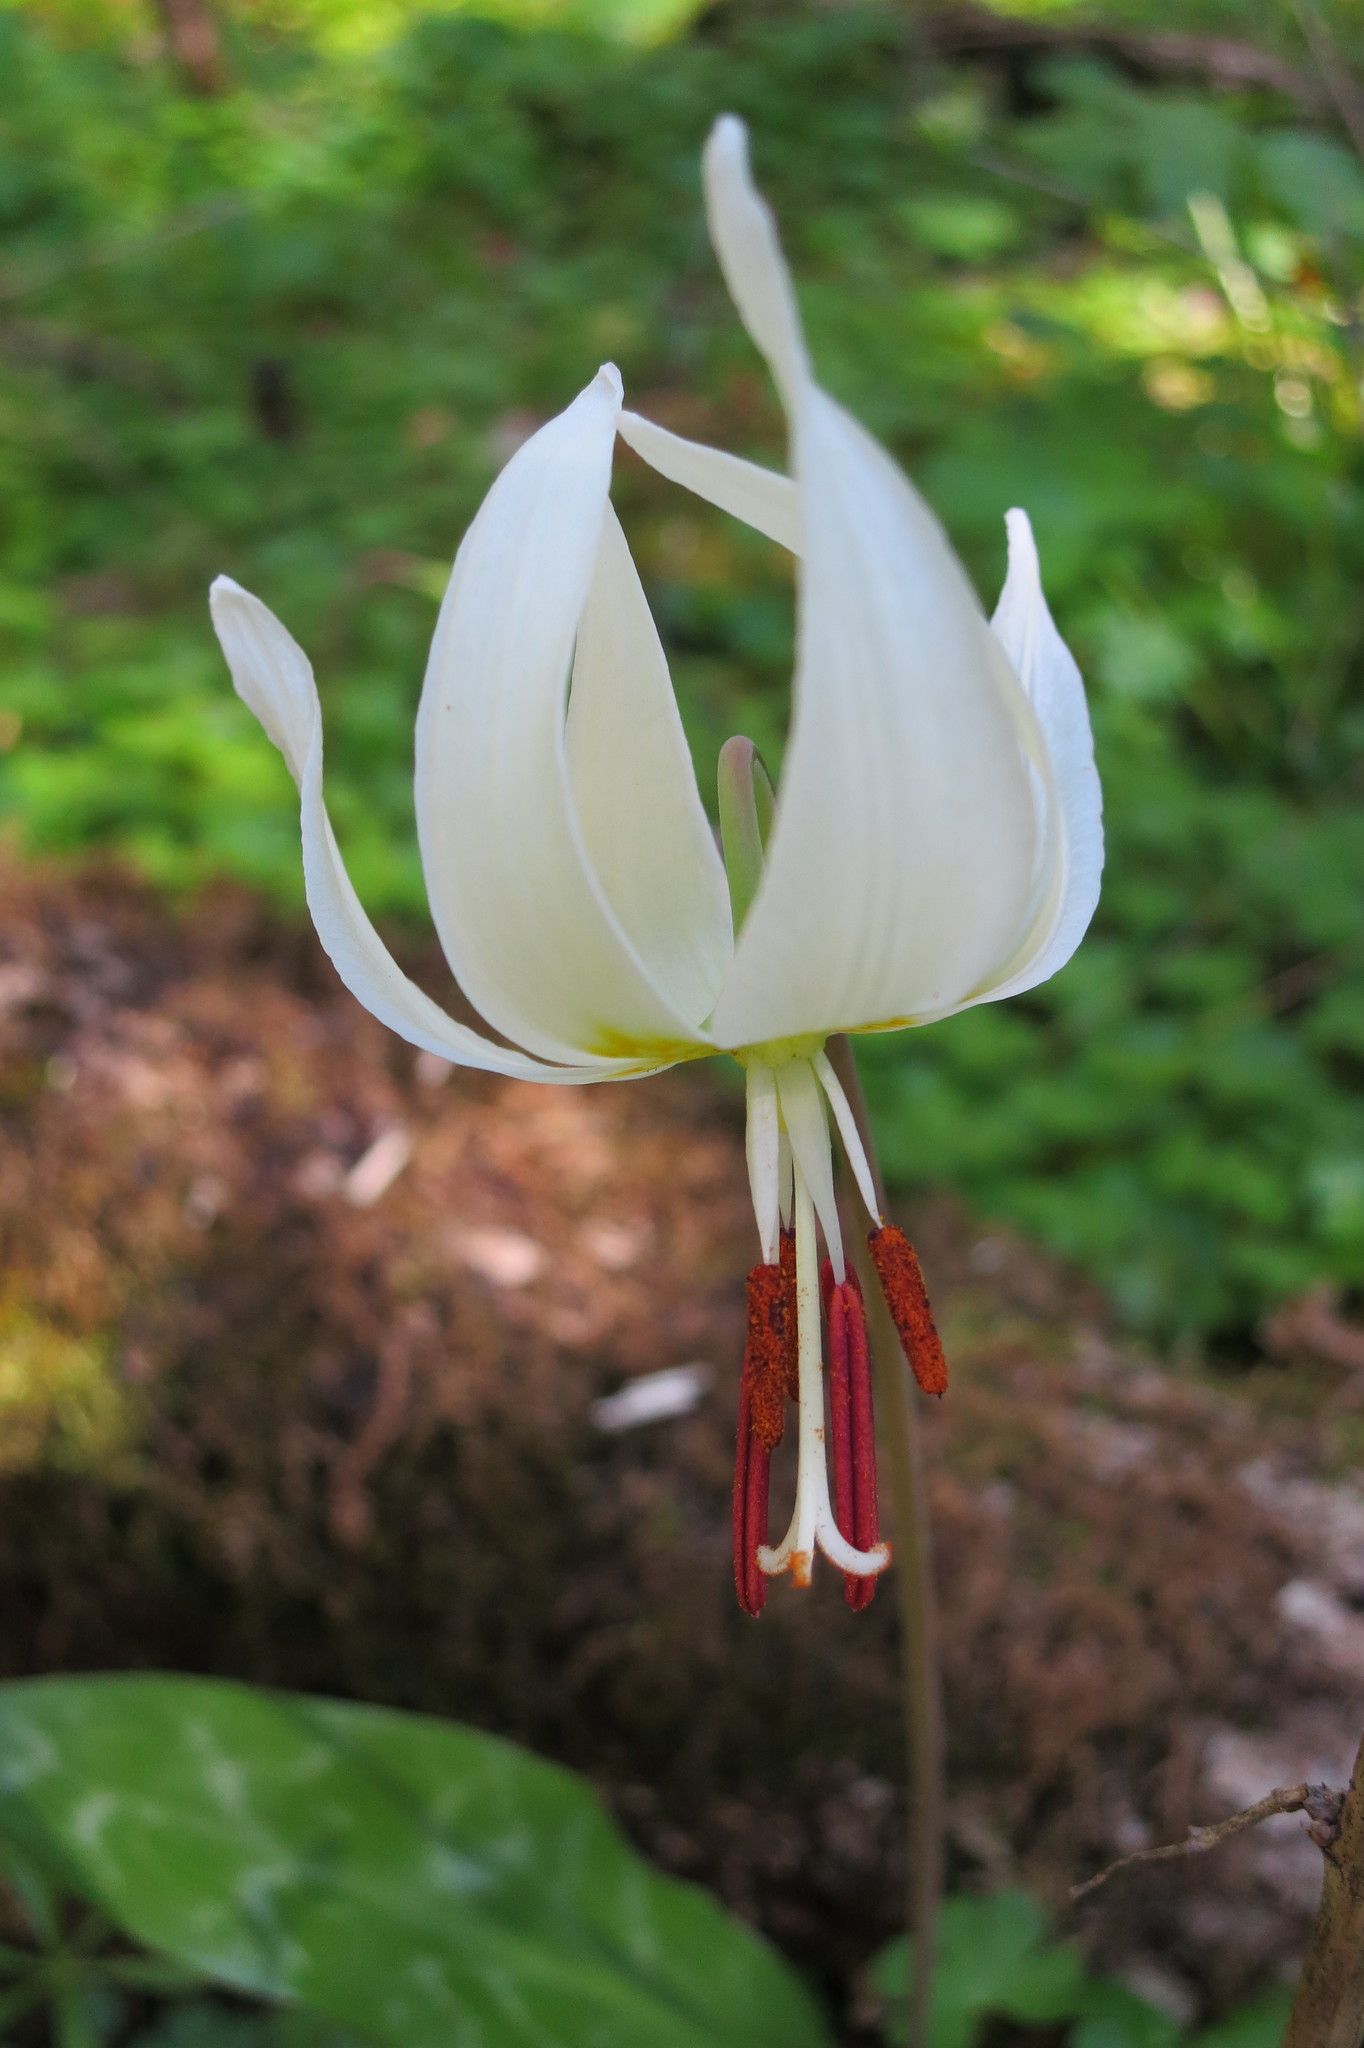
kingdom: Plantae
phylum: Tracheophyta
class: Liliopsida
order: Liliales
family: Liliaceae
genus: Erythronium
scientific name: Erythronium oregonum
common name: Giant adder's-tongue
